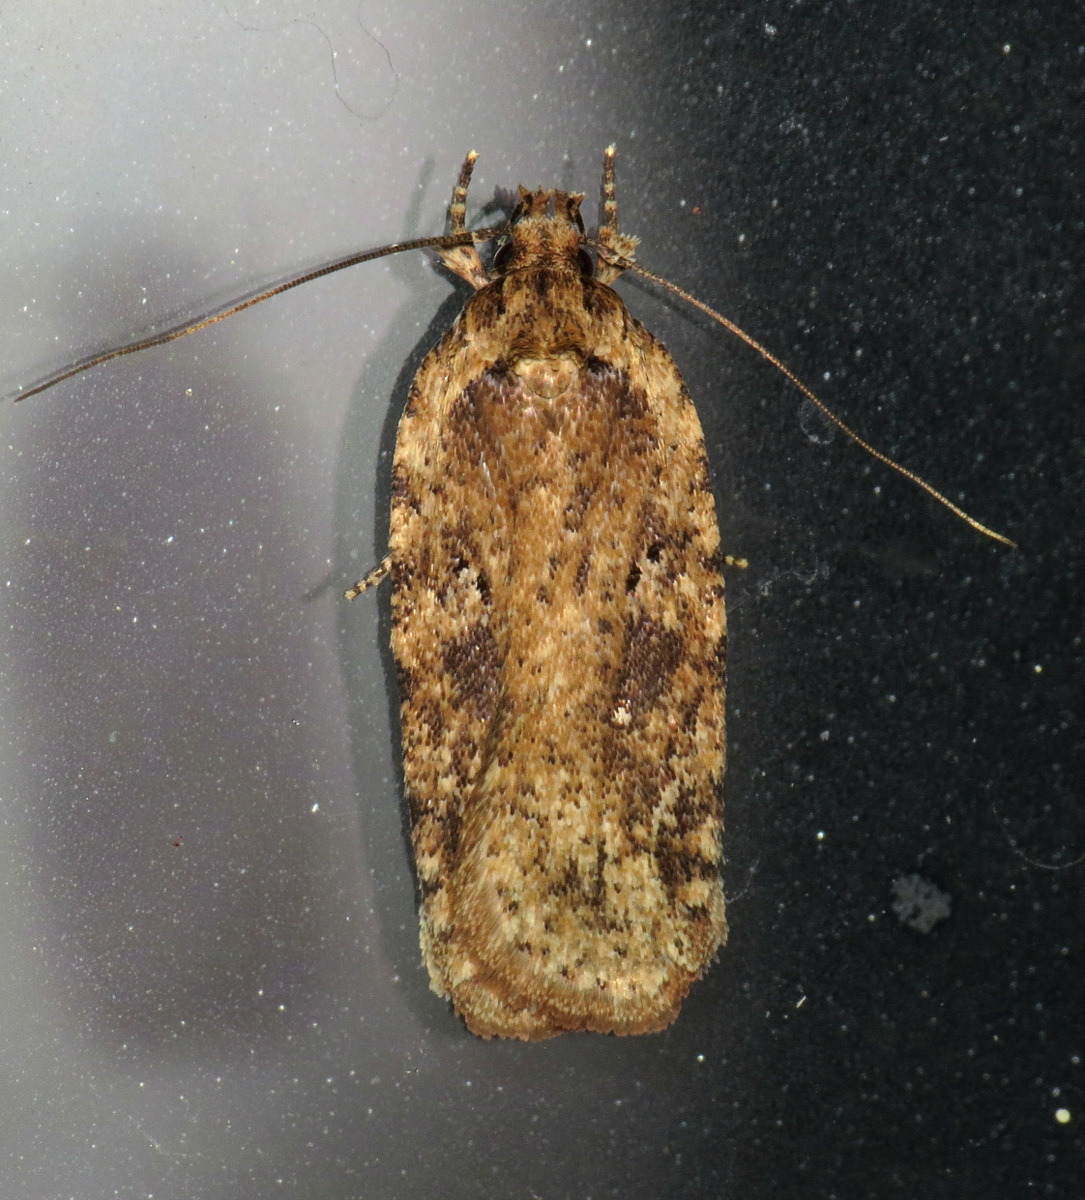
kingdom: Animalia
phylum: Arthropoda
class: Insecta
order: Lepidoptera
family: Depressariidae
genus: Agonopterix
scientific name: Agonopterix pulvipennella
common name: Goldenrod leafffolder
